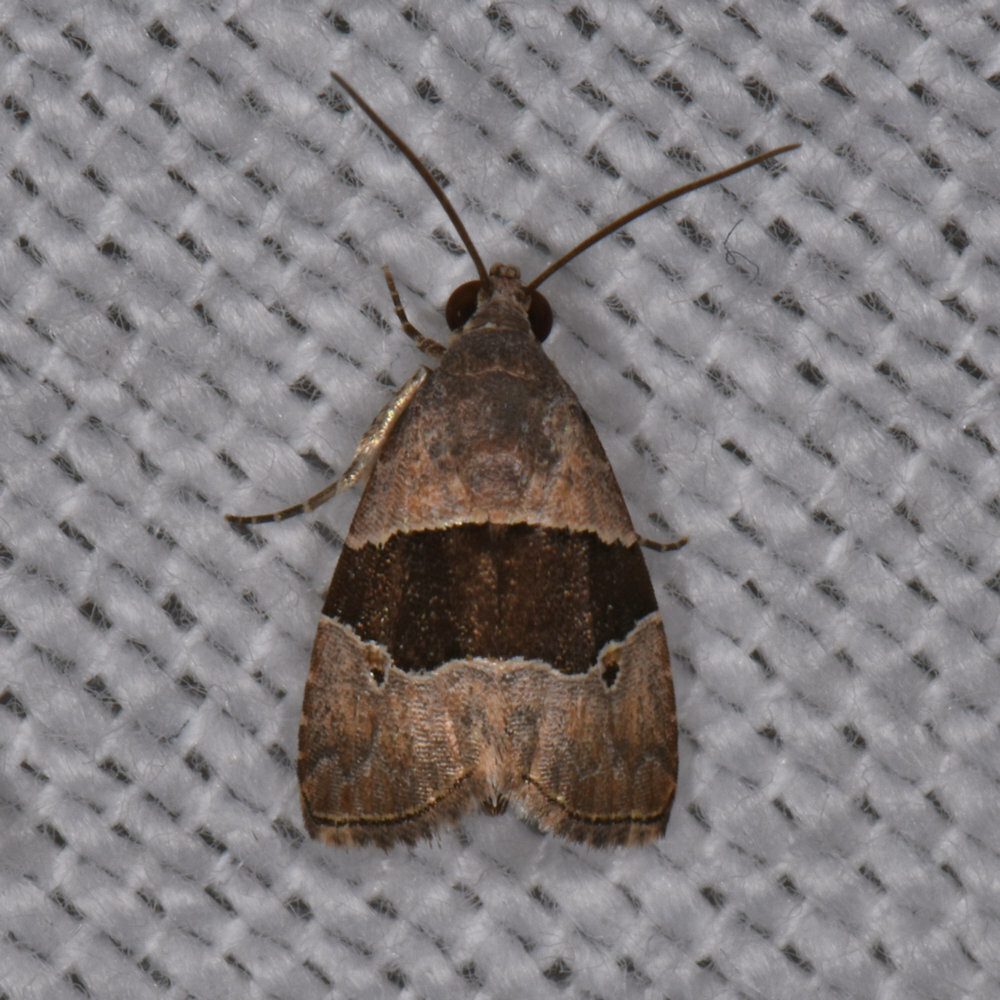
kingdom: Animalia
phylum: Arthropoda
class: Insecta
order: Lepidoptera
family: Noctuidae
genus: Cobubatha
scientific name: Cobubatha hippotes
